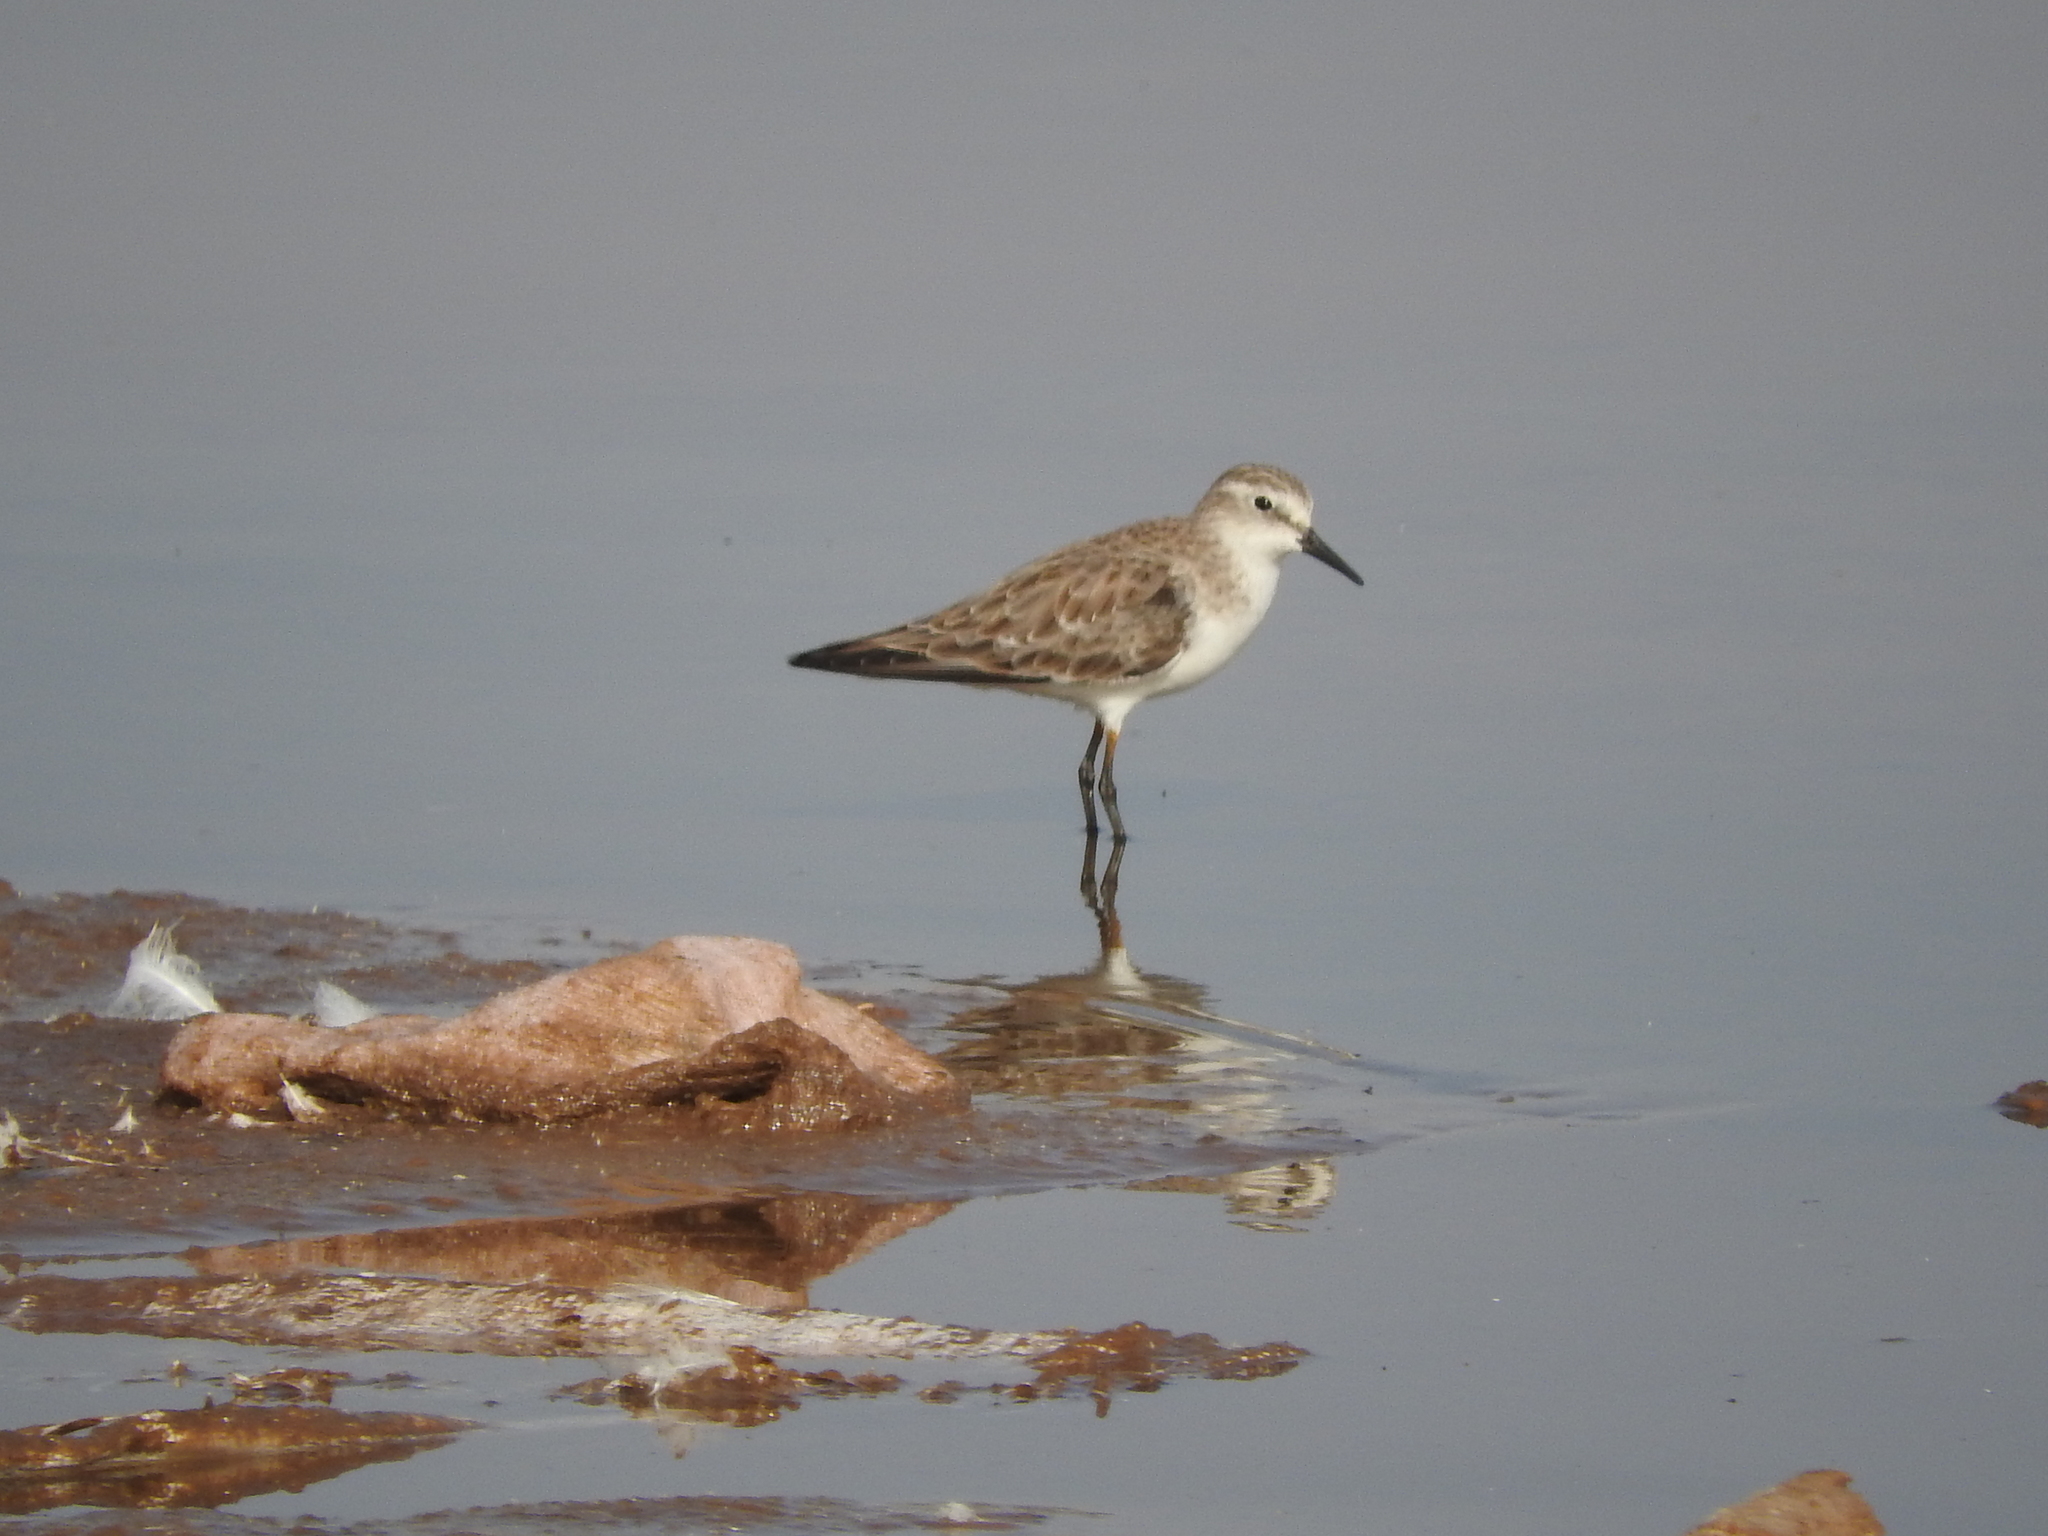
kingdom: Animalia
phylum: Chordata
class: Aves
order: Charadriiformes
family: Scolopacidae
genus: Calidris
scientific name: Calidris minuta
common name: Little stint
